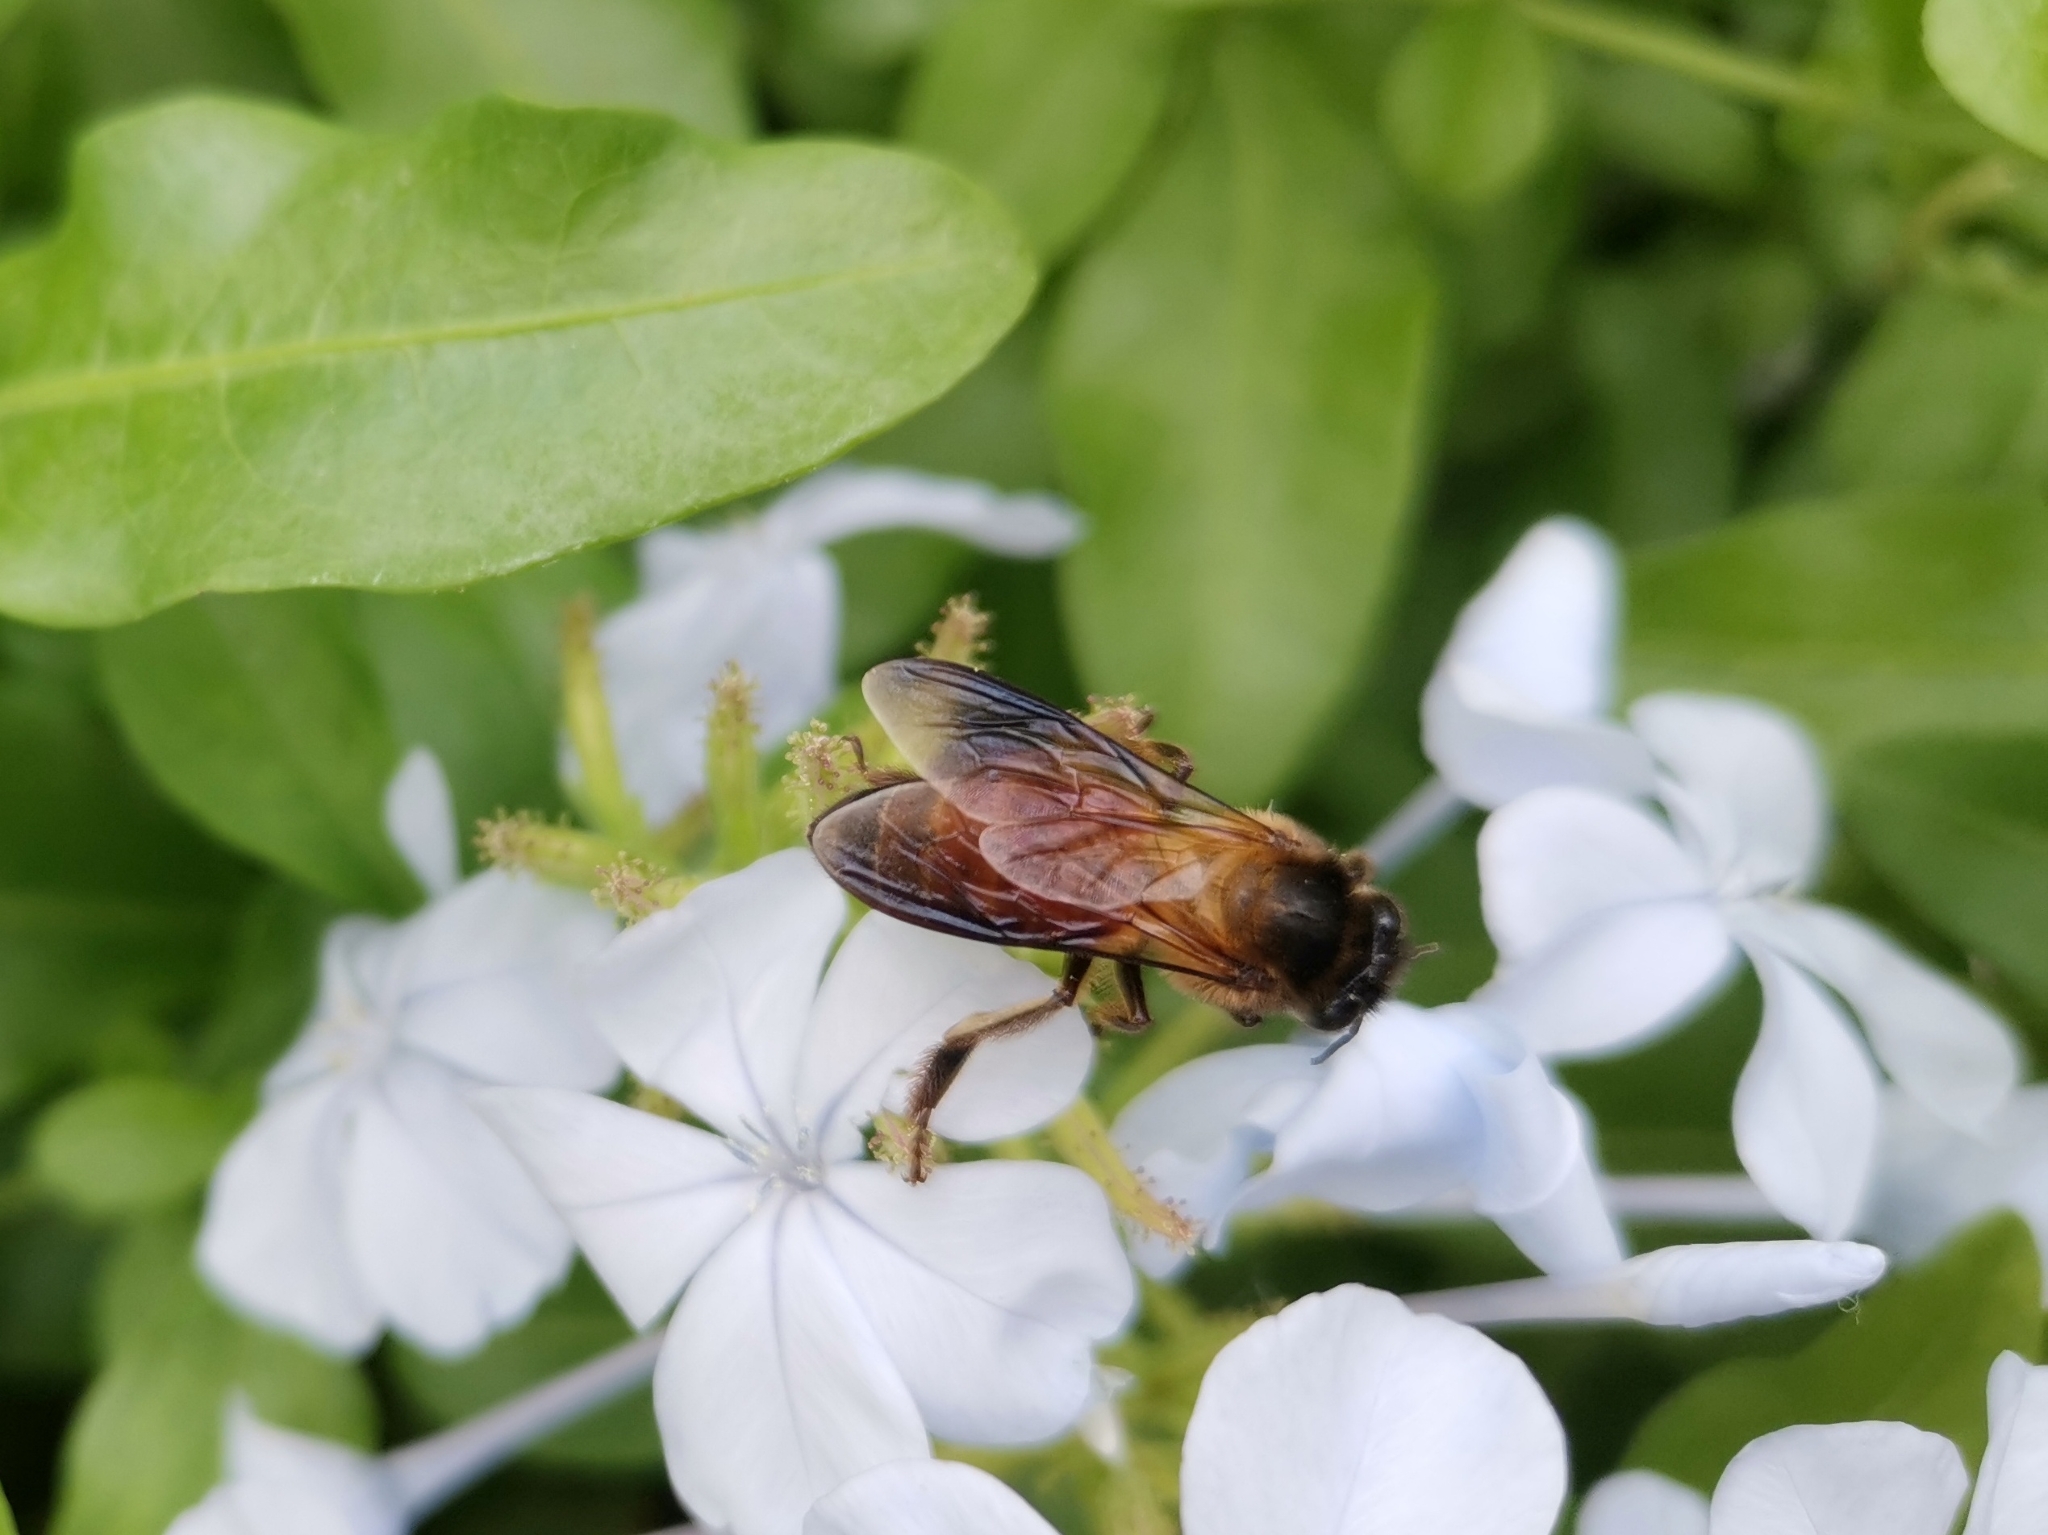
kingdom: Animalia
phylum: Arthropoda
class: Insecta
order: Hymenoptera
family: Apidae
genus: Apis
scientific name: Apis dorsata
